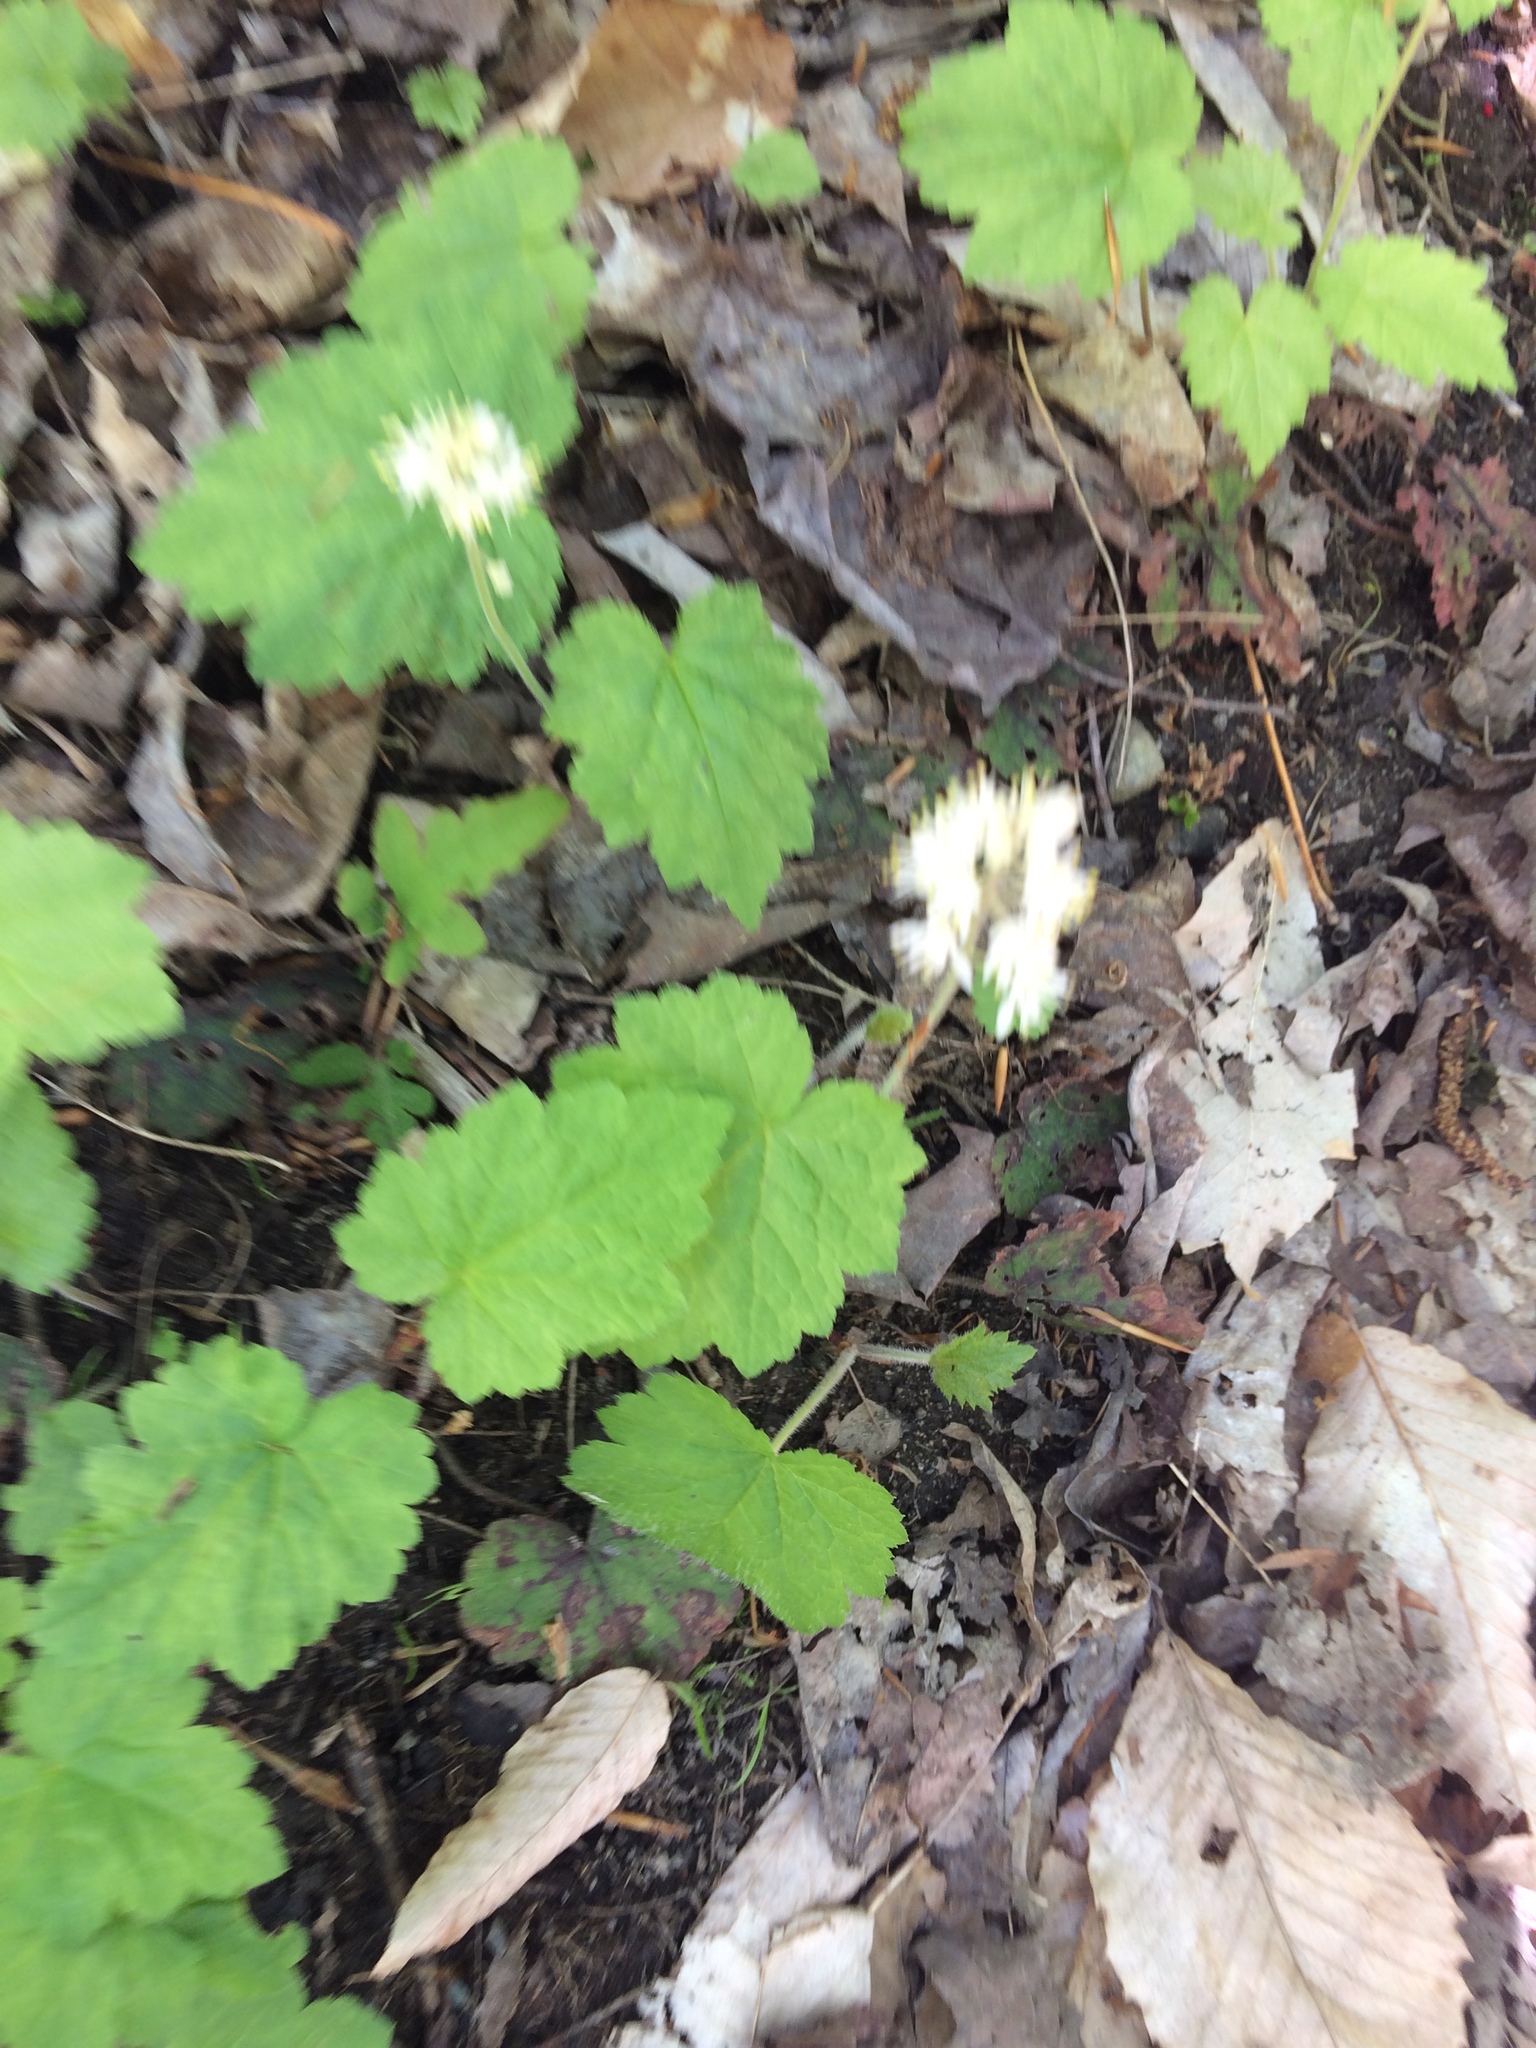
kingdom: Plantae
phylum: Tracheophyta
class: Magnoliopsida
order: Saxifragales
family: Saxifragaceae
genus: Tiarella
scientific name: Tiarella stolonifera
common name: Stoloniferous foamflower
